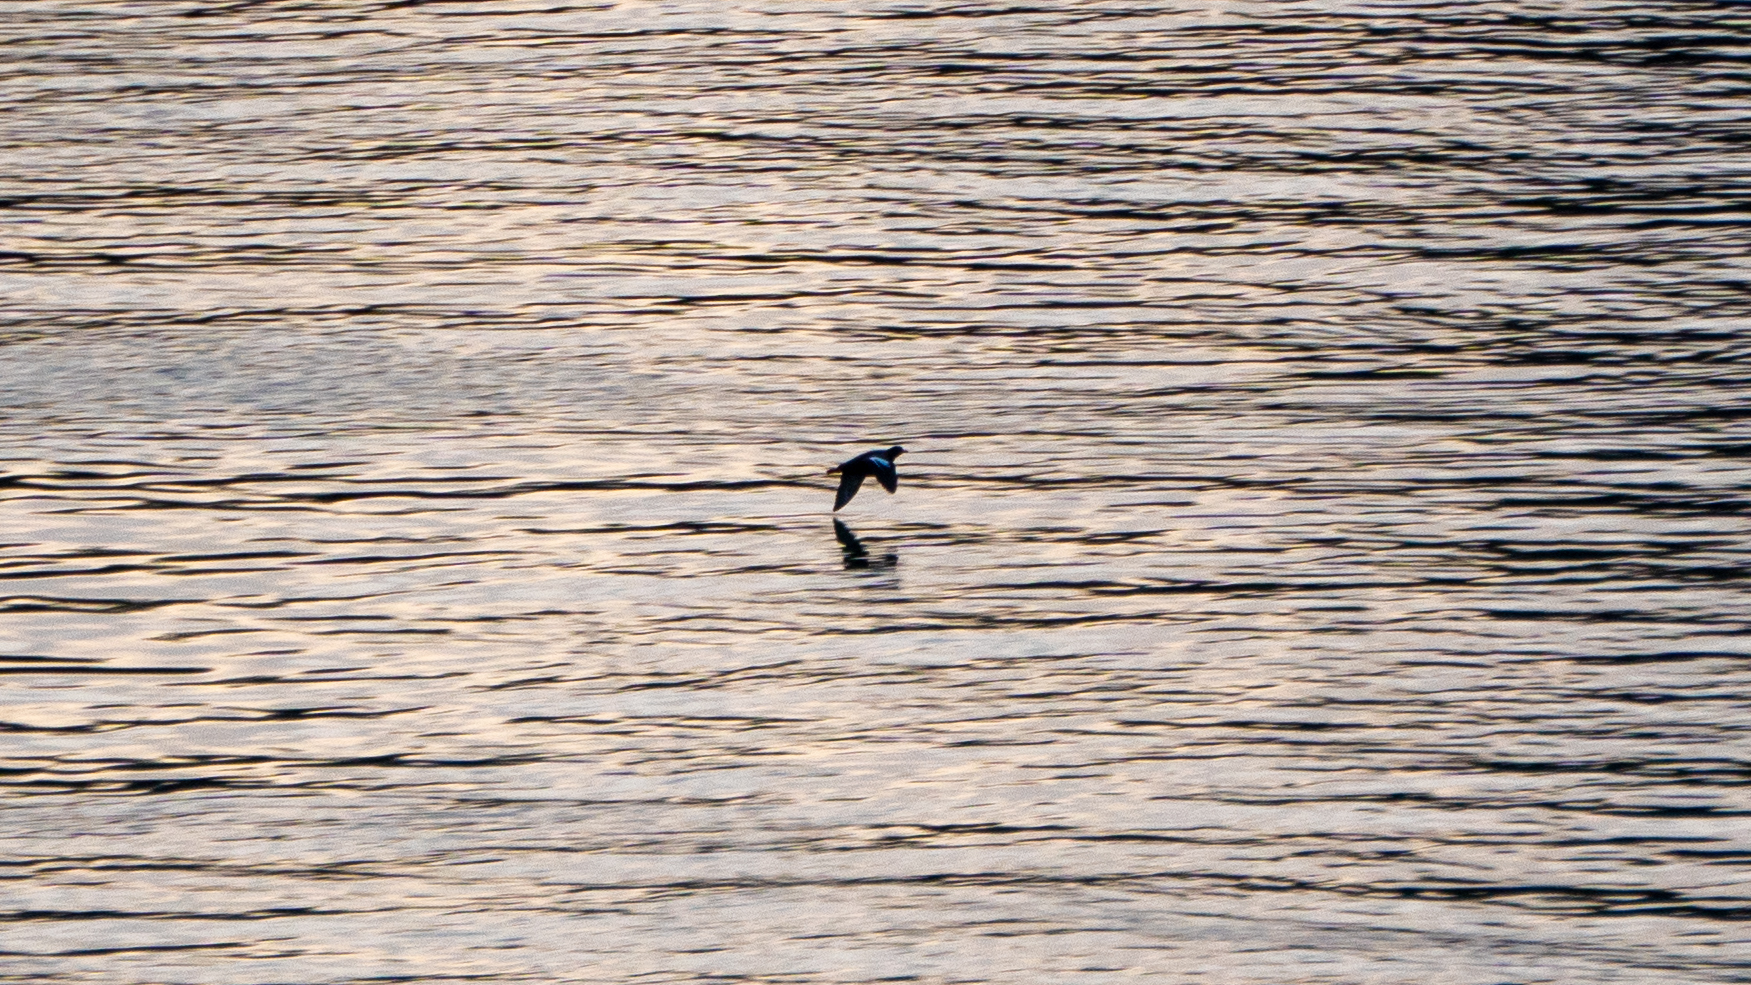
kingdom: Animalia
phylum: Chordata
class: Aves
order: Charadriiformes
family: Alcidae
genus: Cepphus
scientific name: Cepphus columba
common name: Pigeon guillemot
